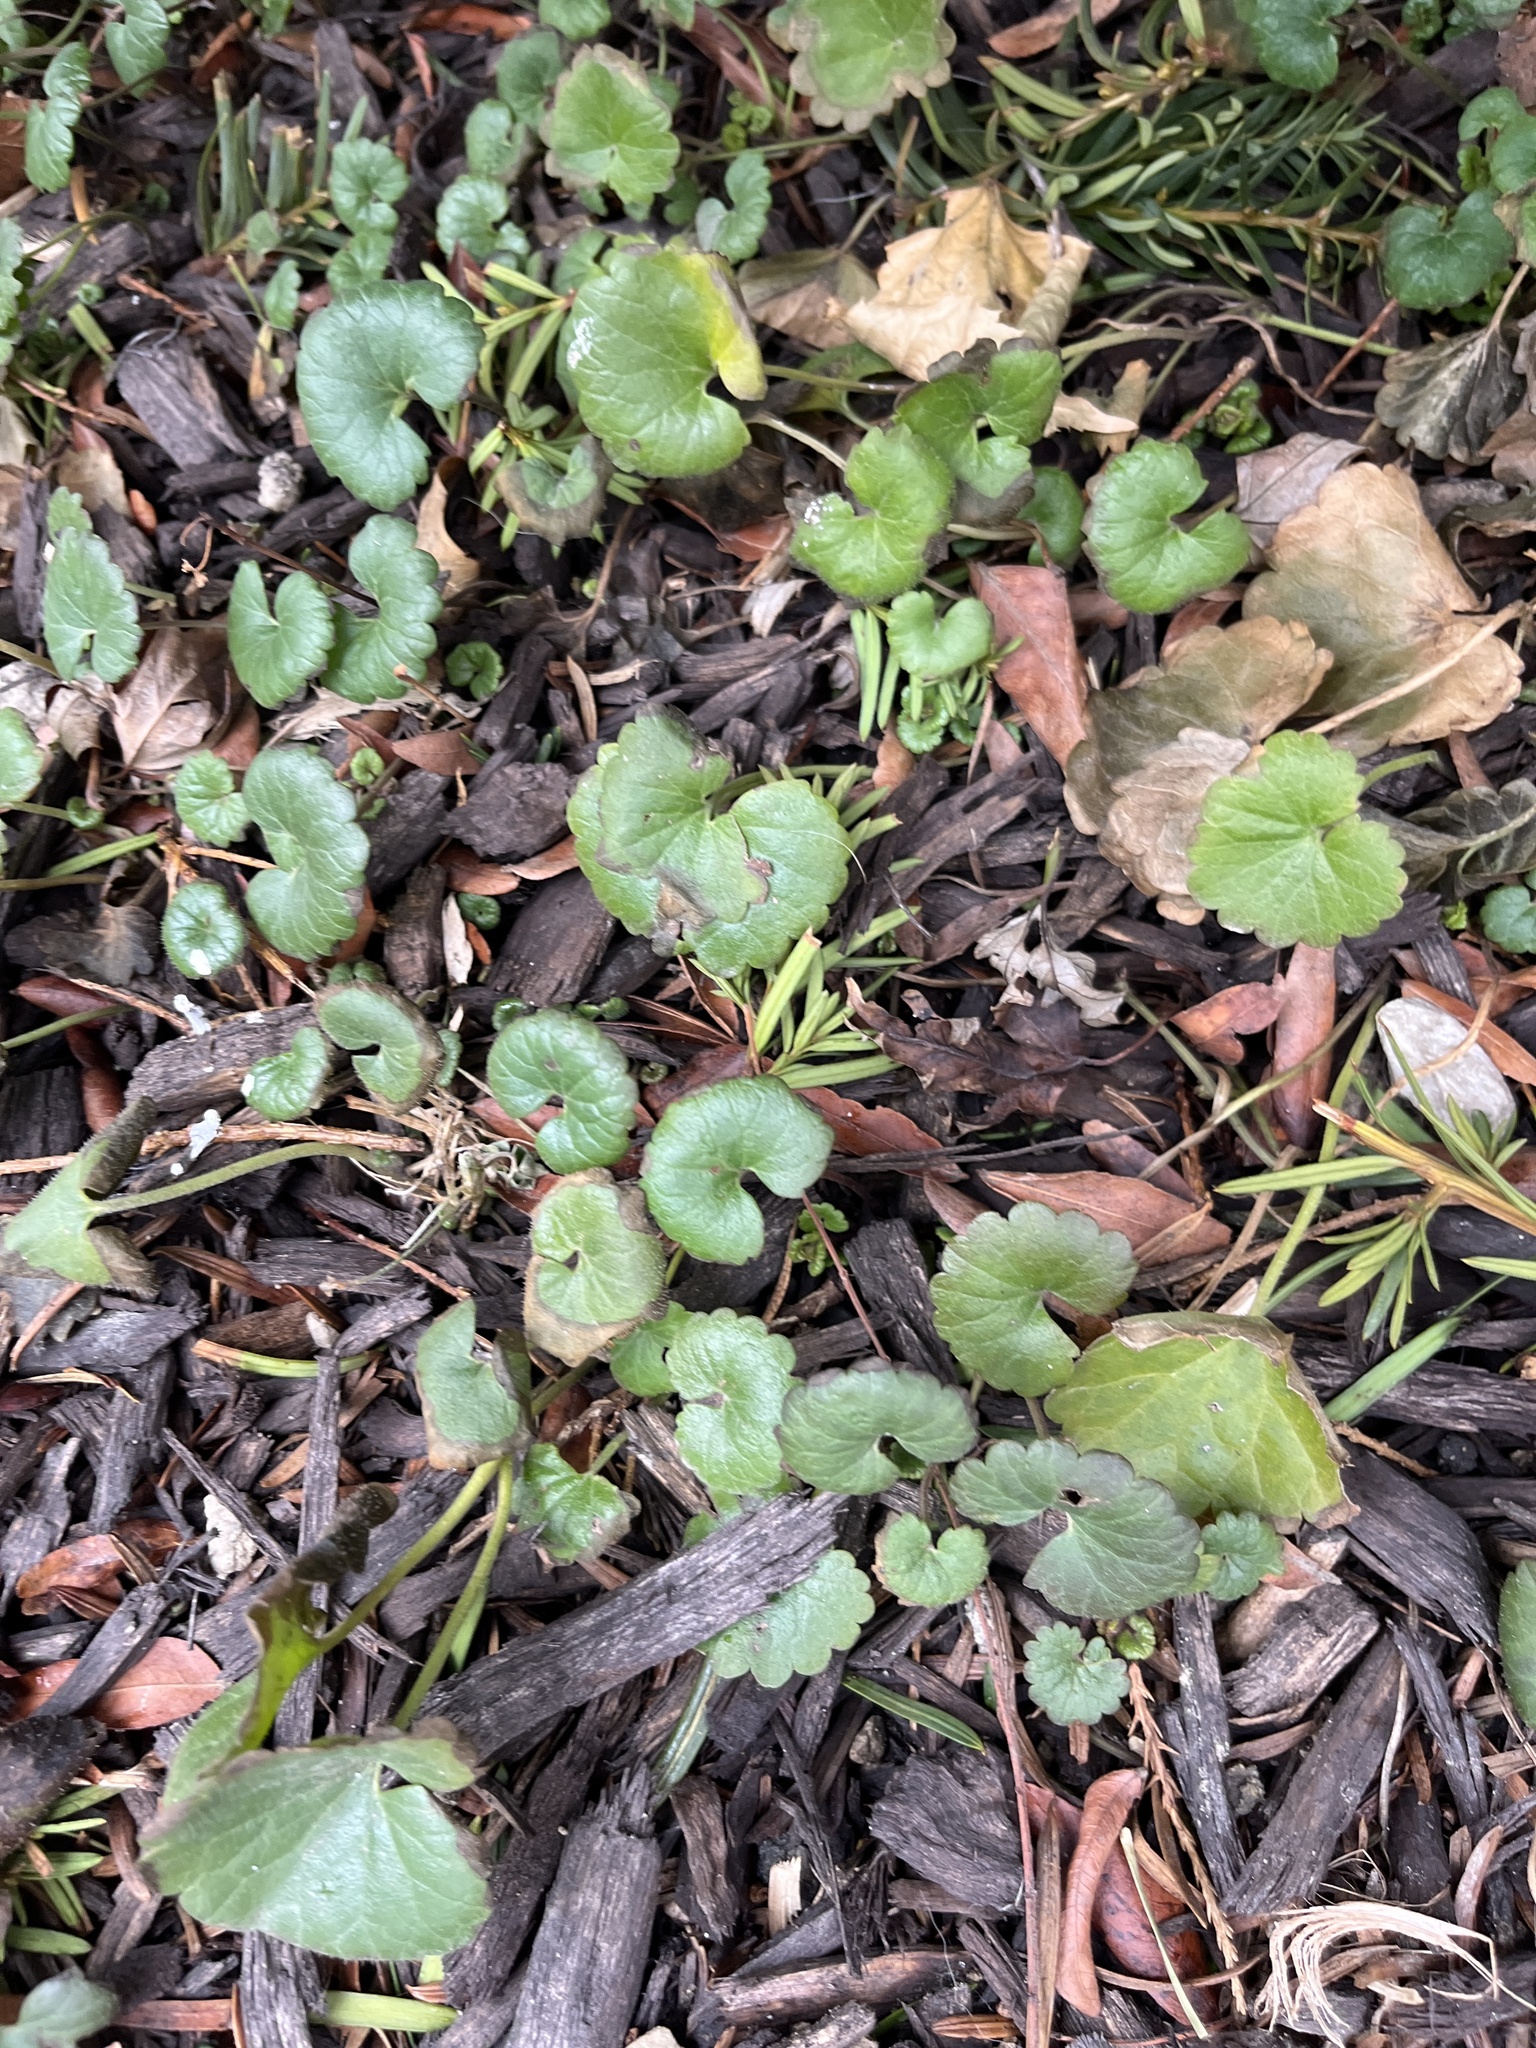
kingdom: Plantae
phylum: Tracheophyta
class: Magnoliopsida
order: Lamiales
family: Lamiaceae
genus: Glechoma
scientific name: Glechoma hederacea
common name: Ground ivy
